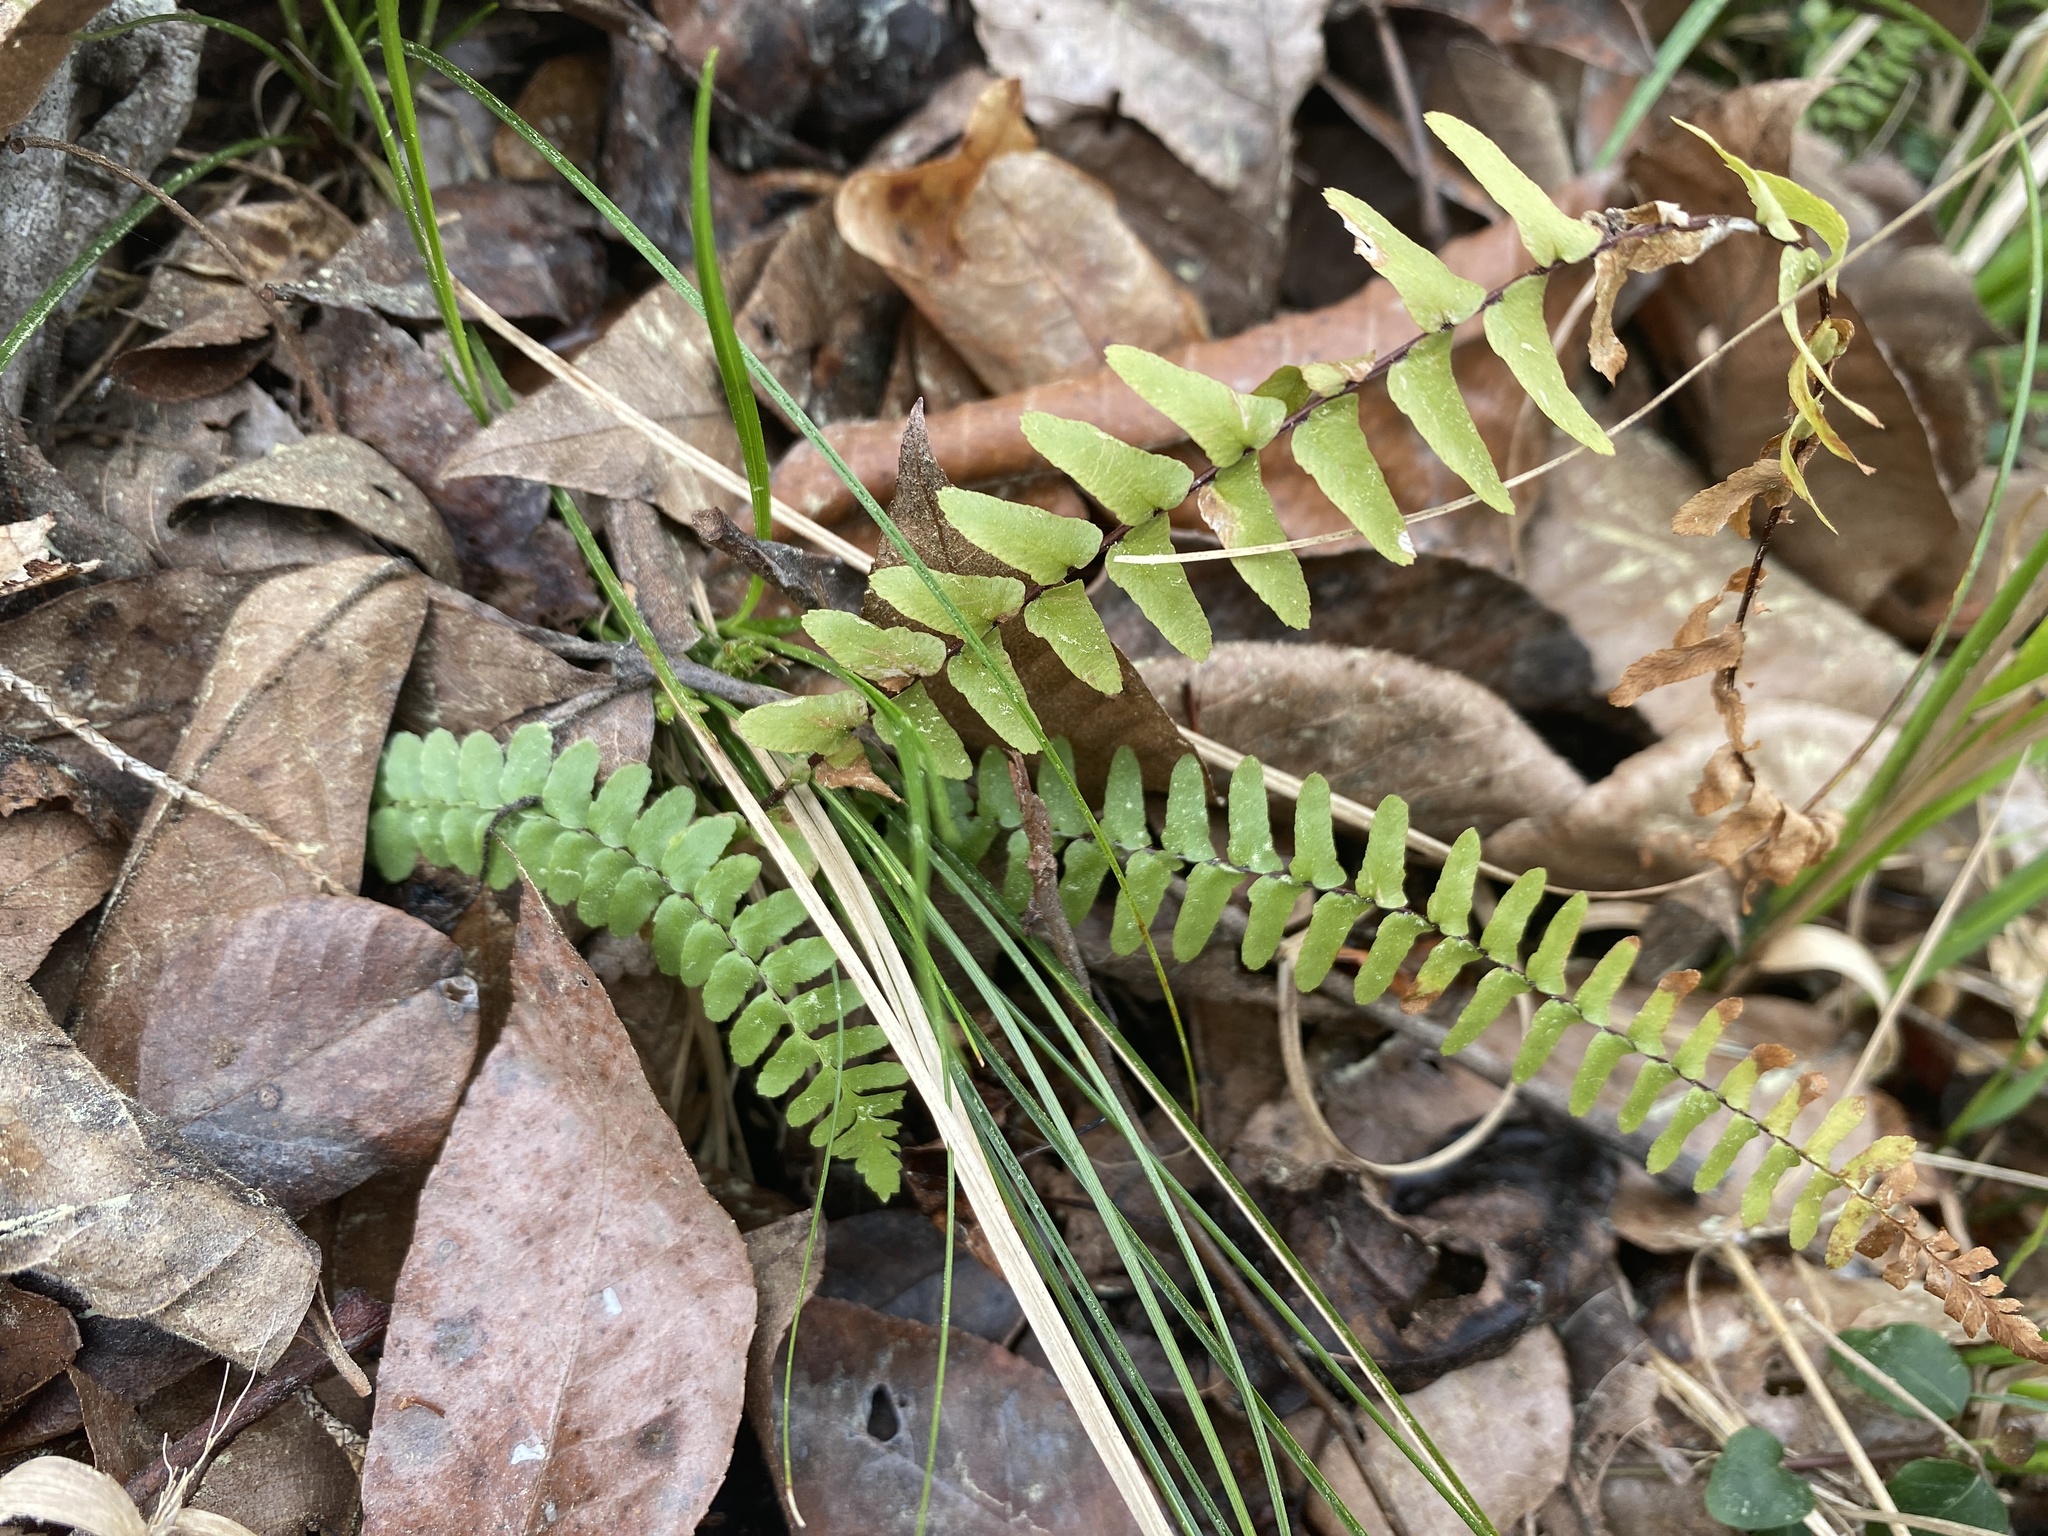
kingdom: Plantae
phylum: Tracheophyta
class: Polypodiopsida
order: Polypodiales
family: Aspleniaceae
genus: Asplenium
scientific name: Asplenium platyneuron
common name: Ebony spleenwort
